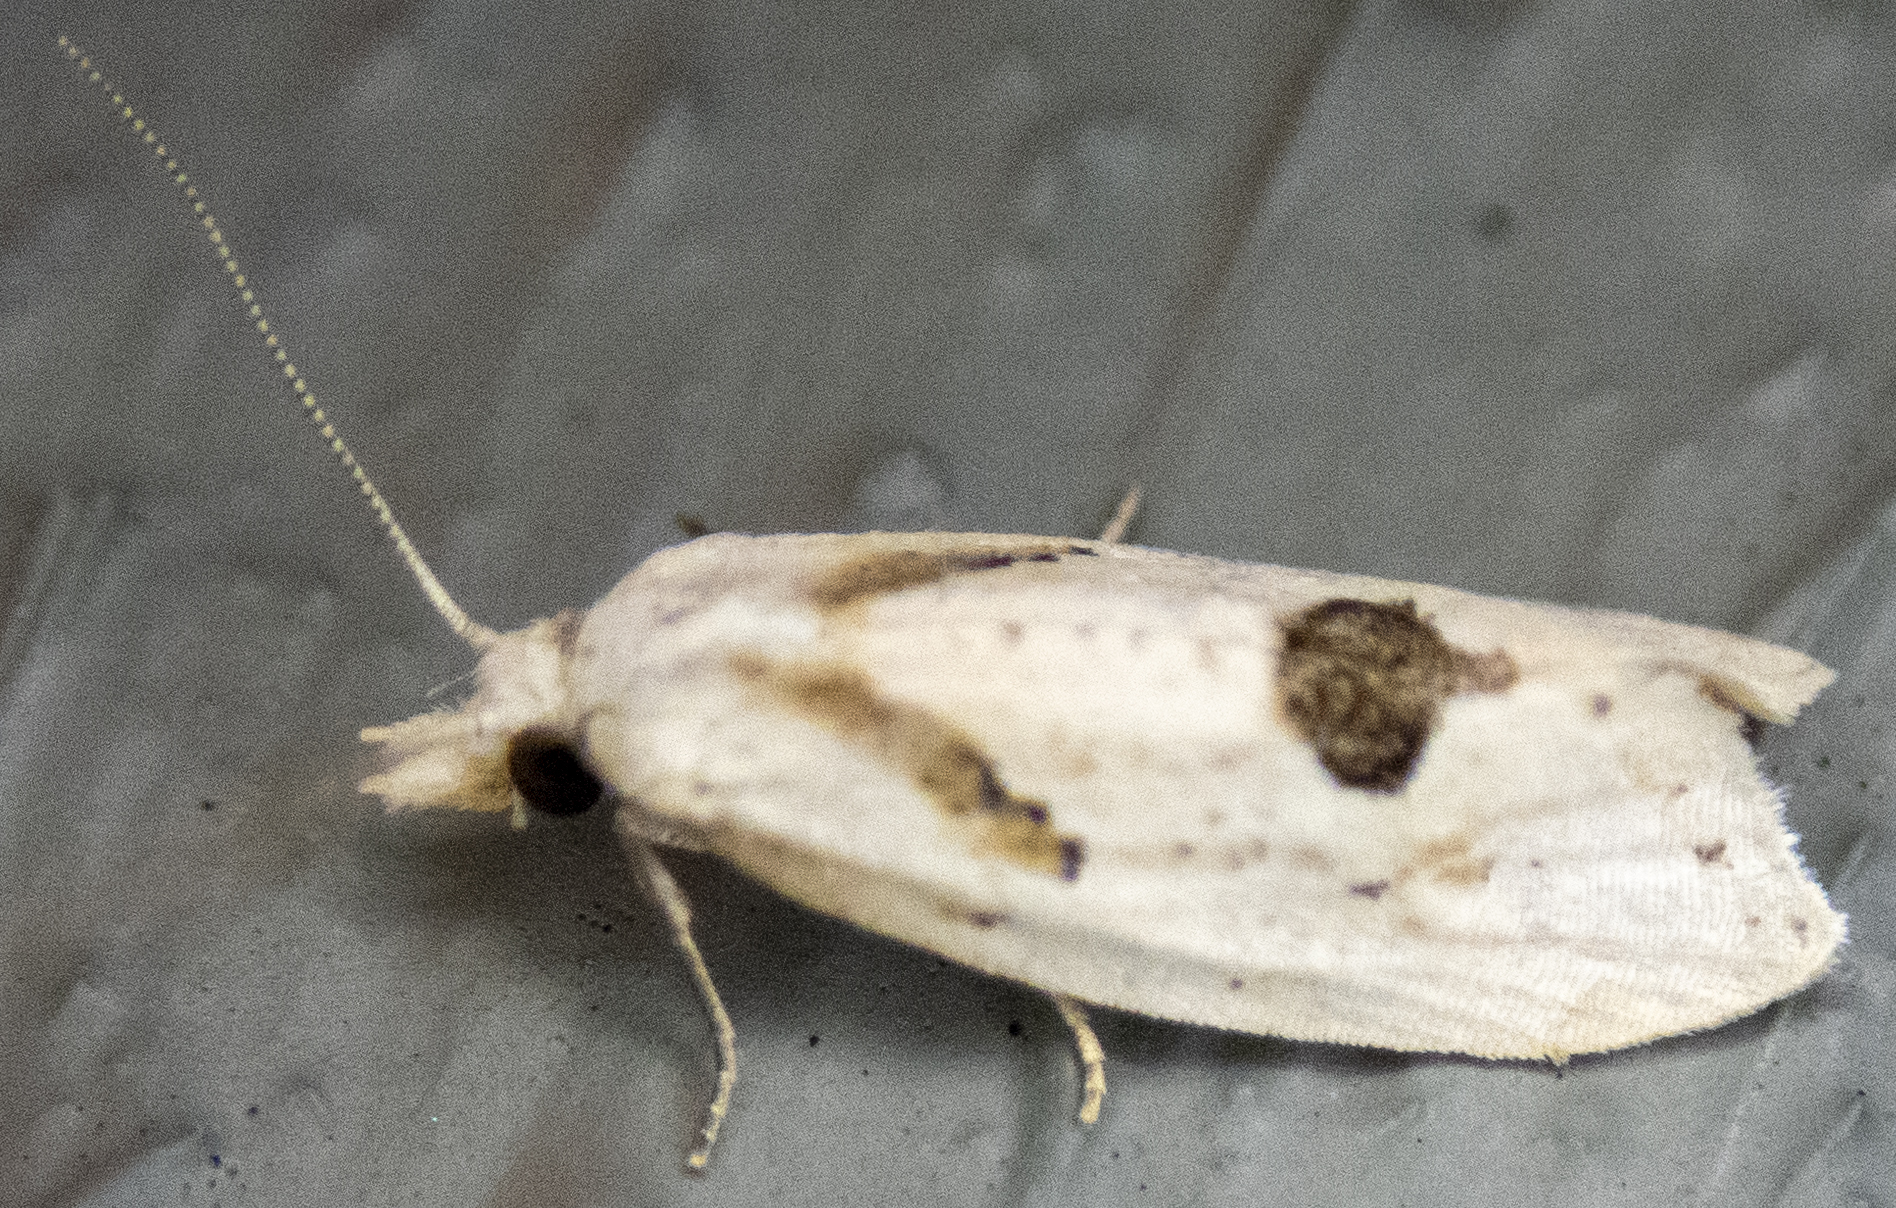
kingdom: Animalia
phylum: Arthropoda
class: Insecta
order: Lepidoptera
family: Tortricidae
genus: Aethes
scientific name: Aethes mymara
